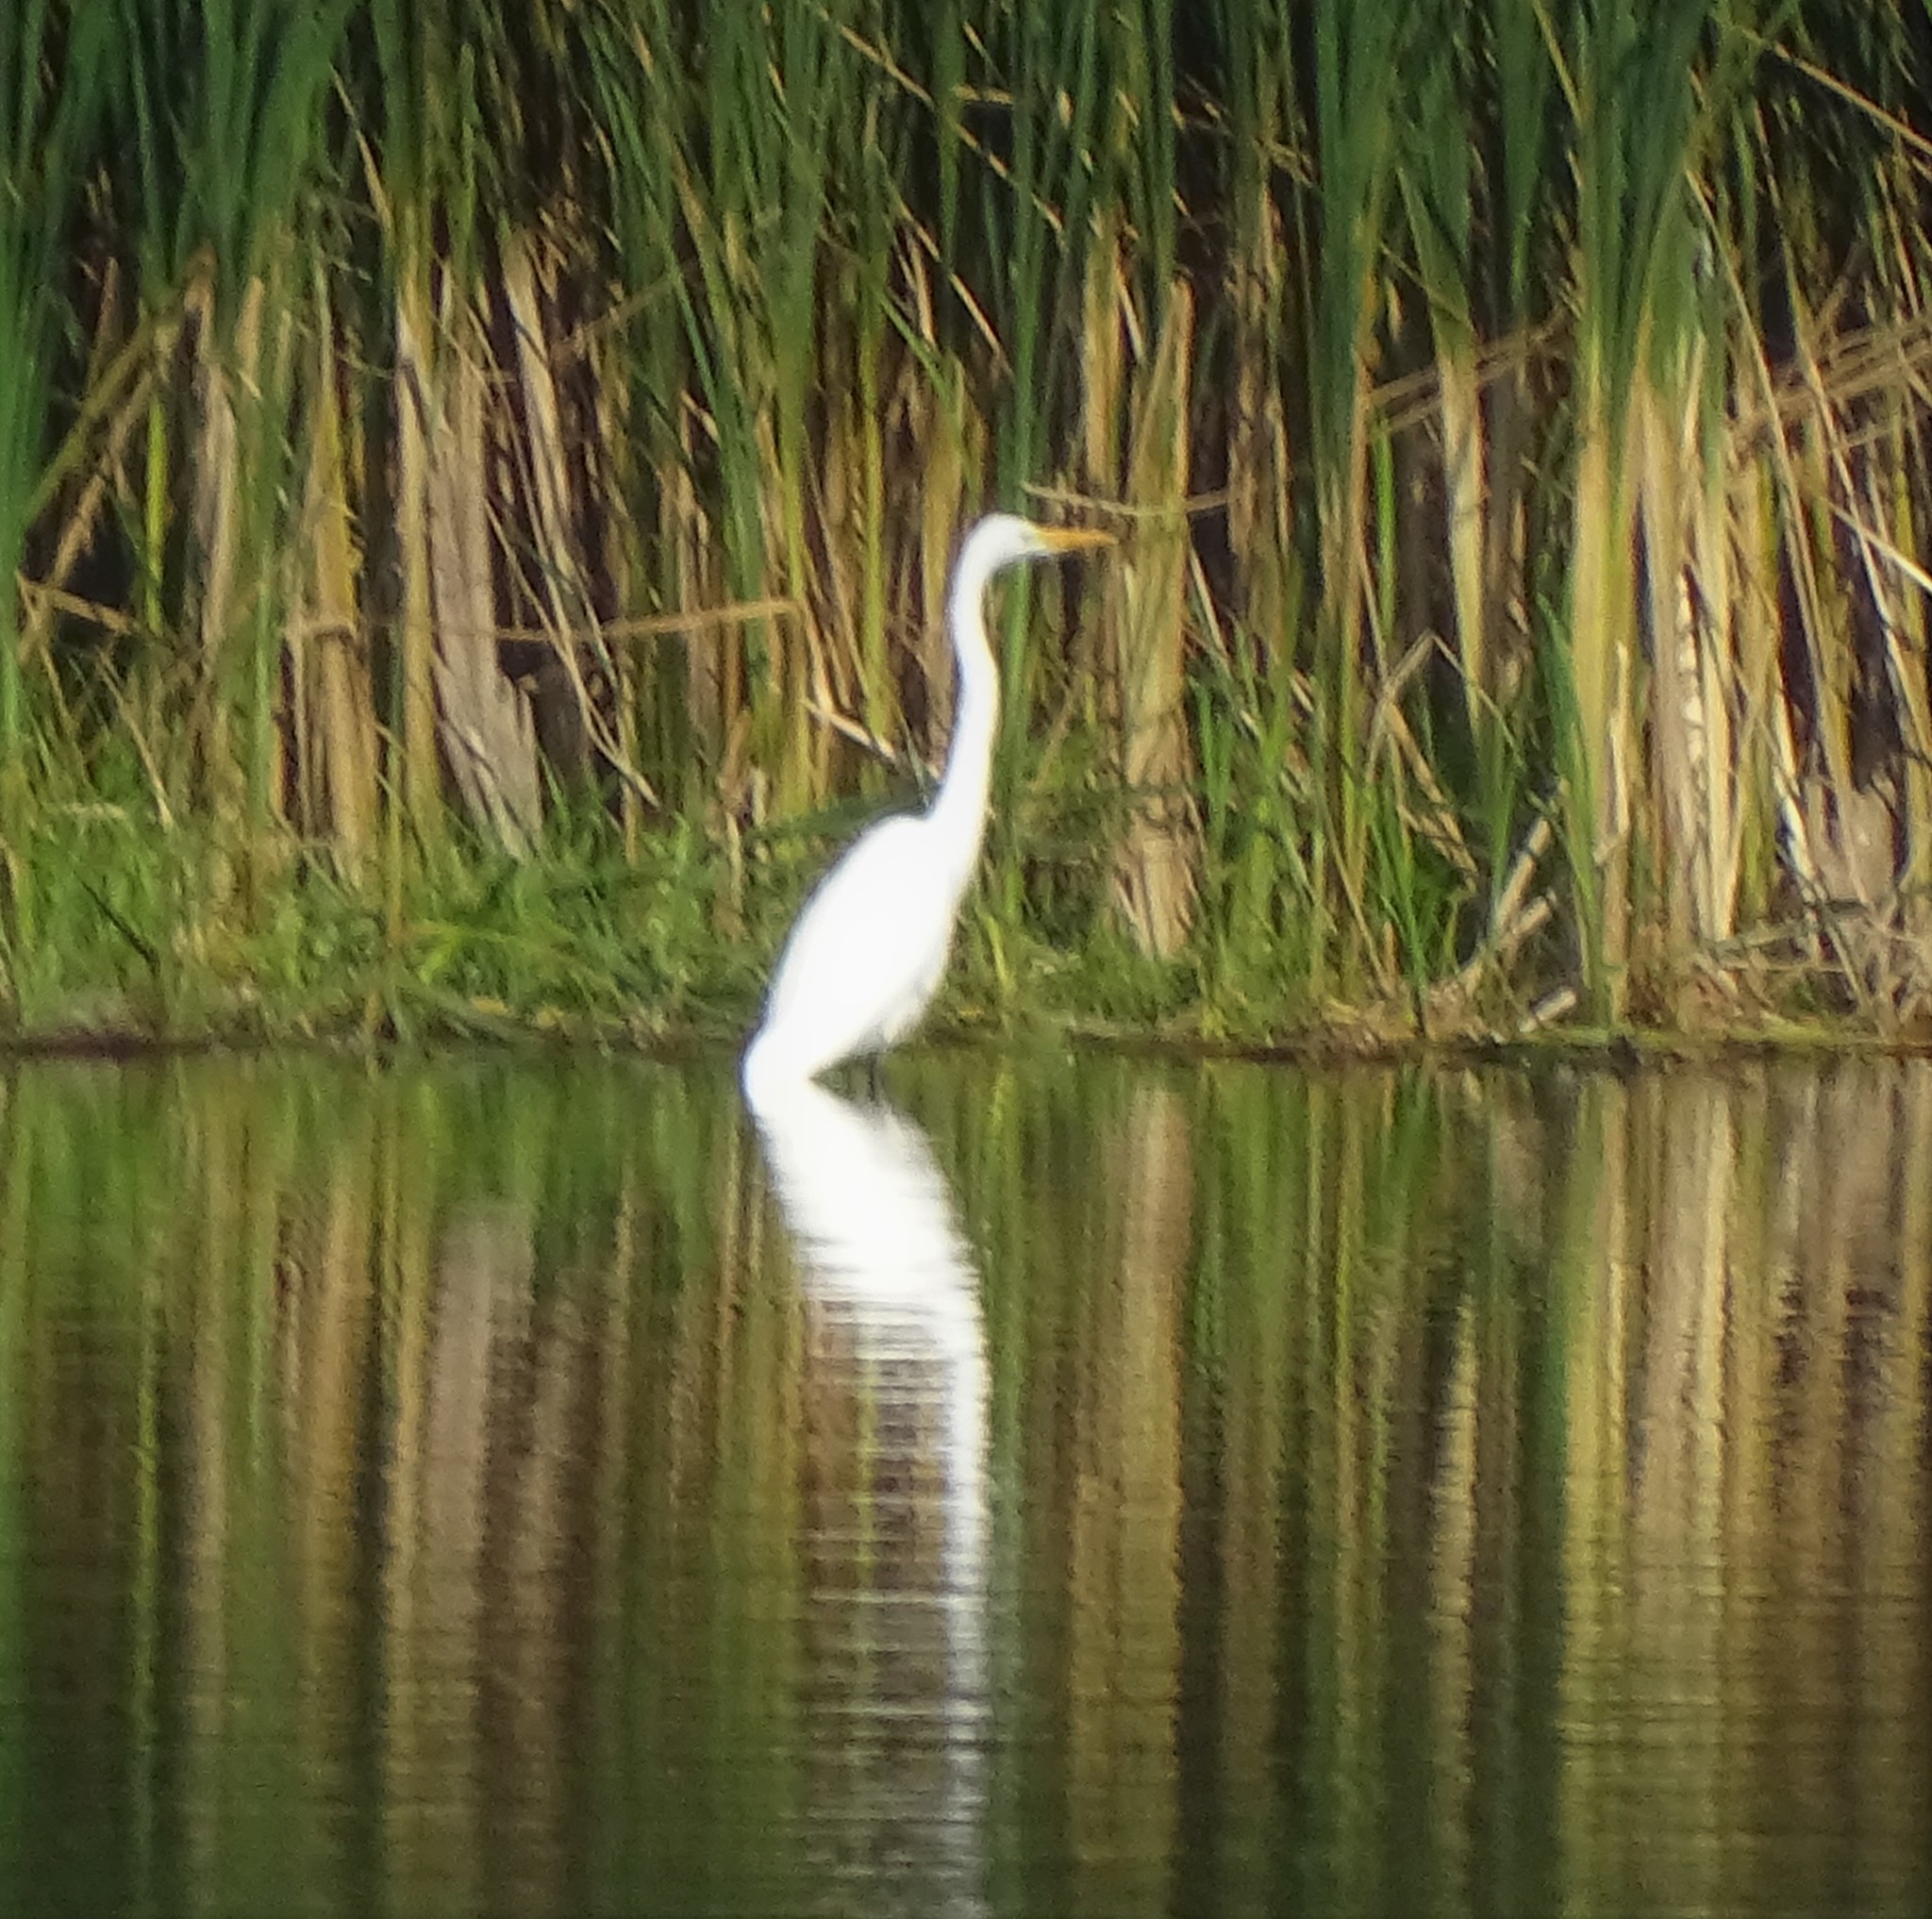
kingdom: Animalia
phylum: Chordata
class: Aves
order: Pelecaniformes
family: Ardeidae
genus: Ardea
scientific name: Ardea alba
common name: Great egret
